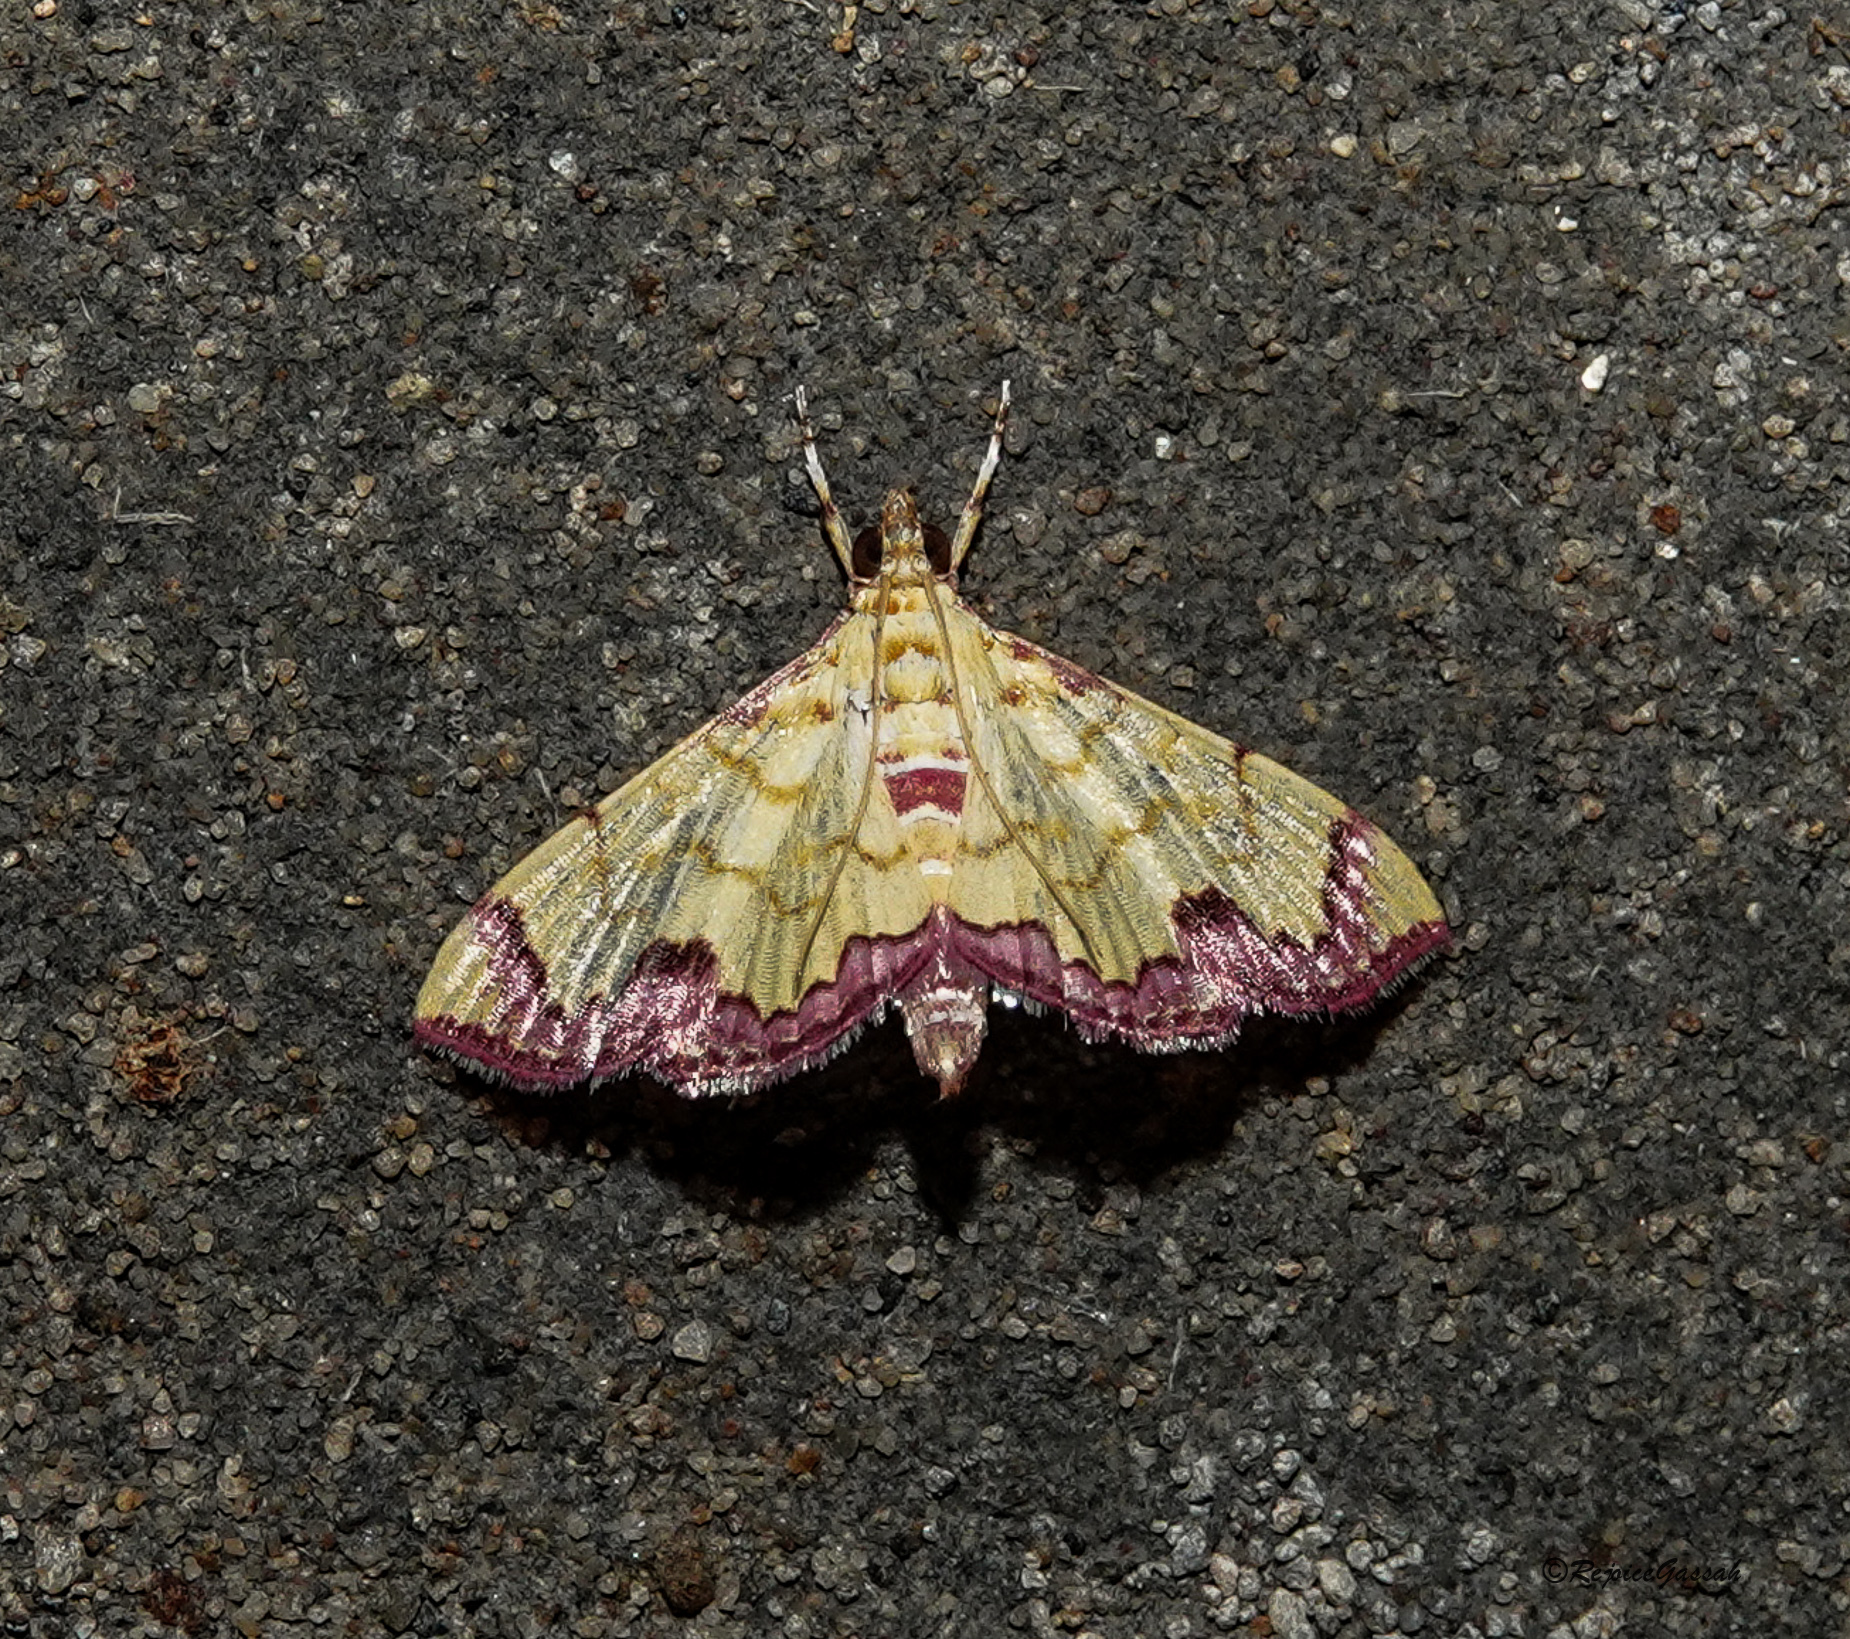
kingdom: Animalia
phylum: Arthropoda
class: Insecta
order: Lepidoptera
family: Crambidae
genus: Hyalobathra
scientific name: Hyalobathra phoenicozona
